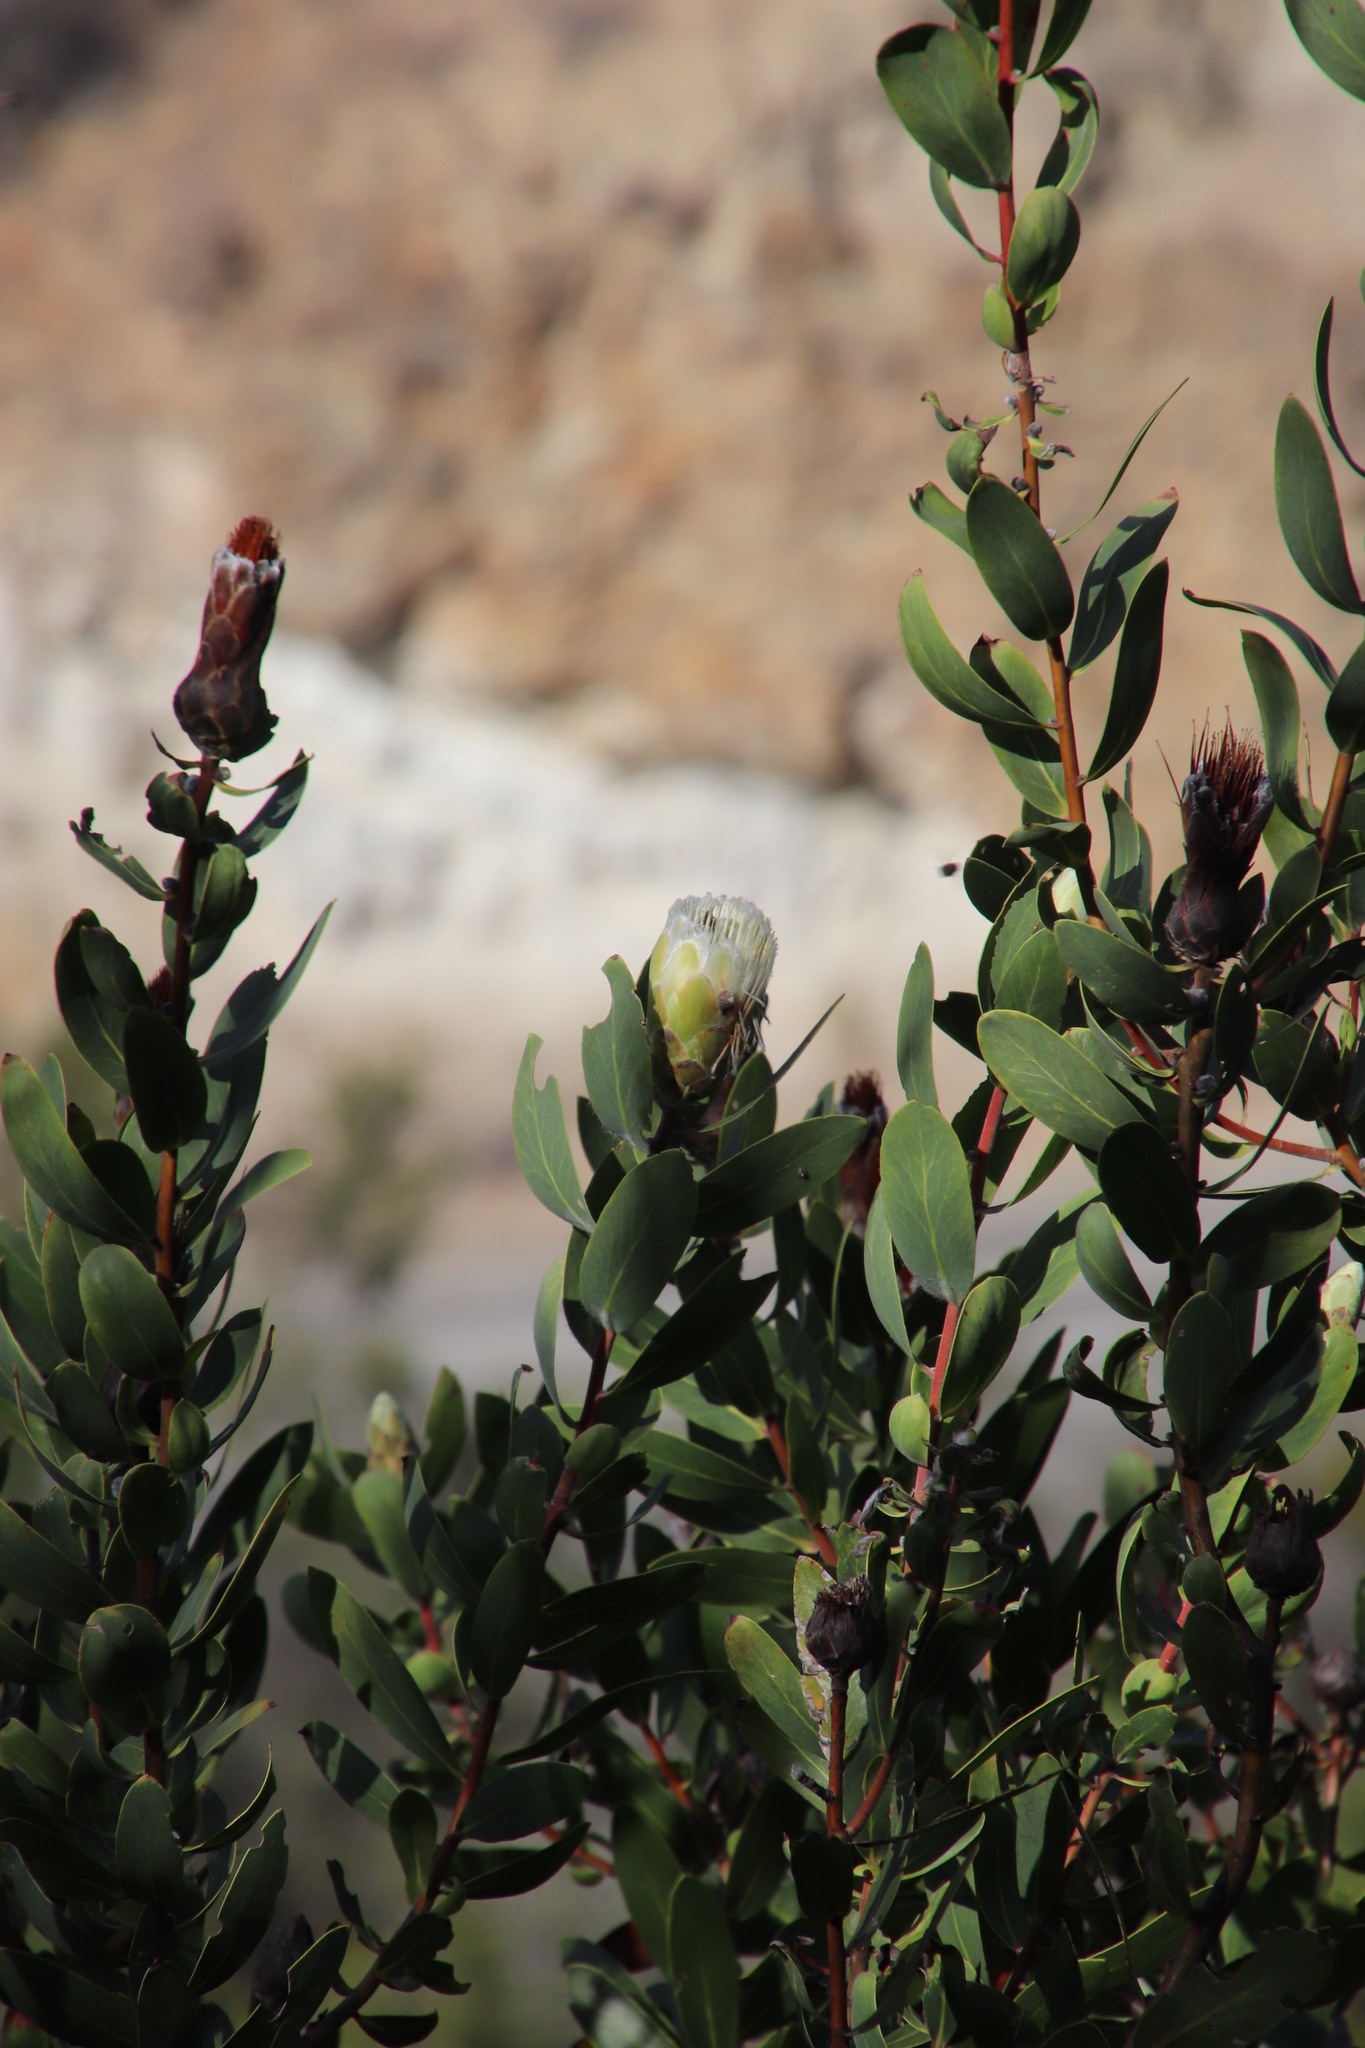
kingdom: Plantae
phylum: Tracheophyta
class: Magnoliopsida
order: Proteales
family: Proteaceae
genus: Protea
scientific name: Protea mundii
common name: Forest sugarbush
